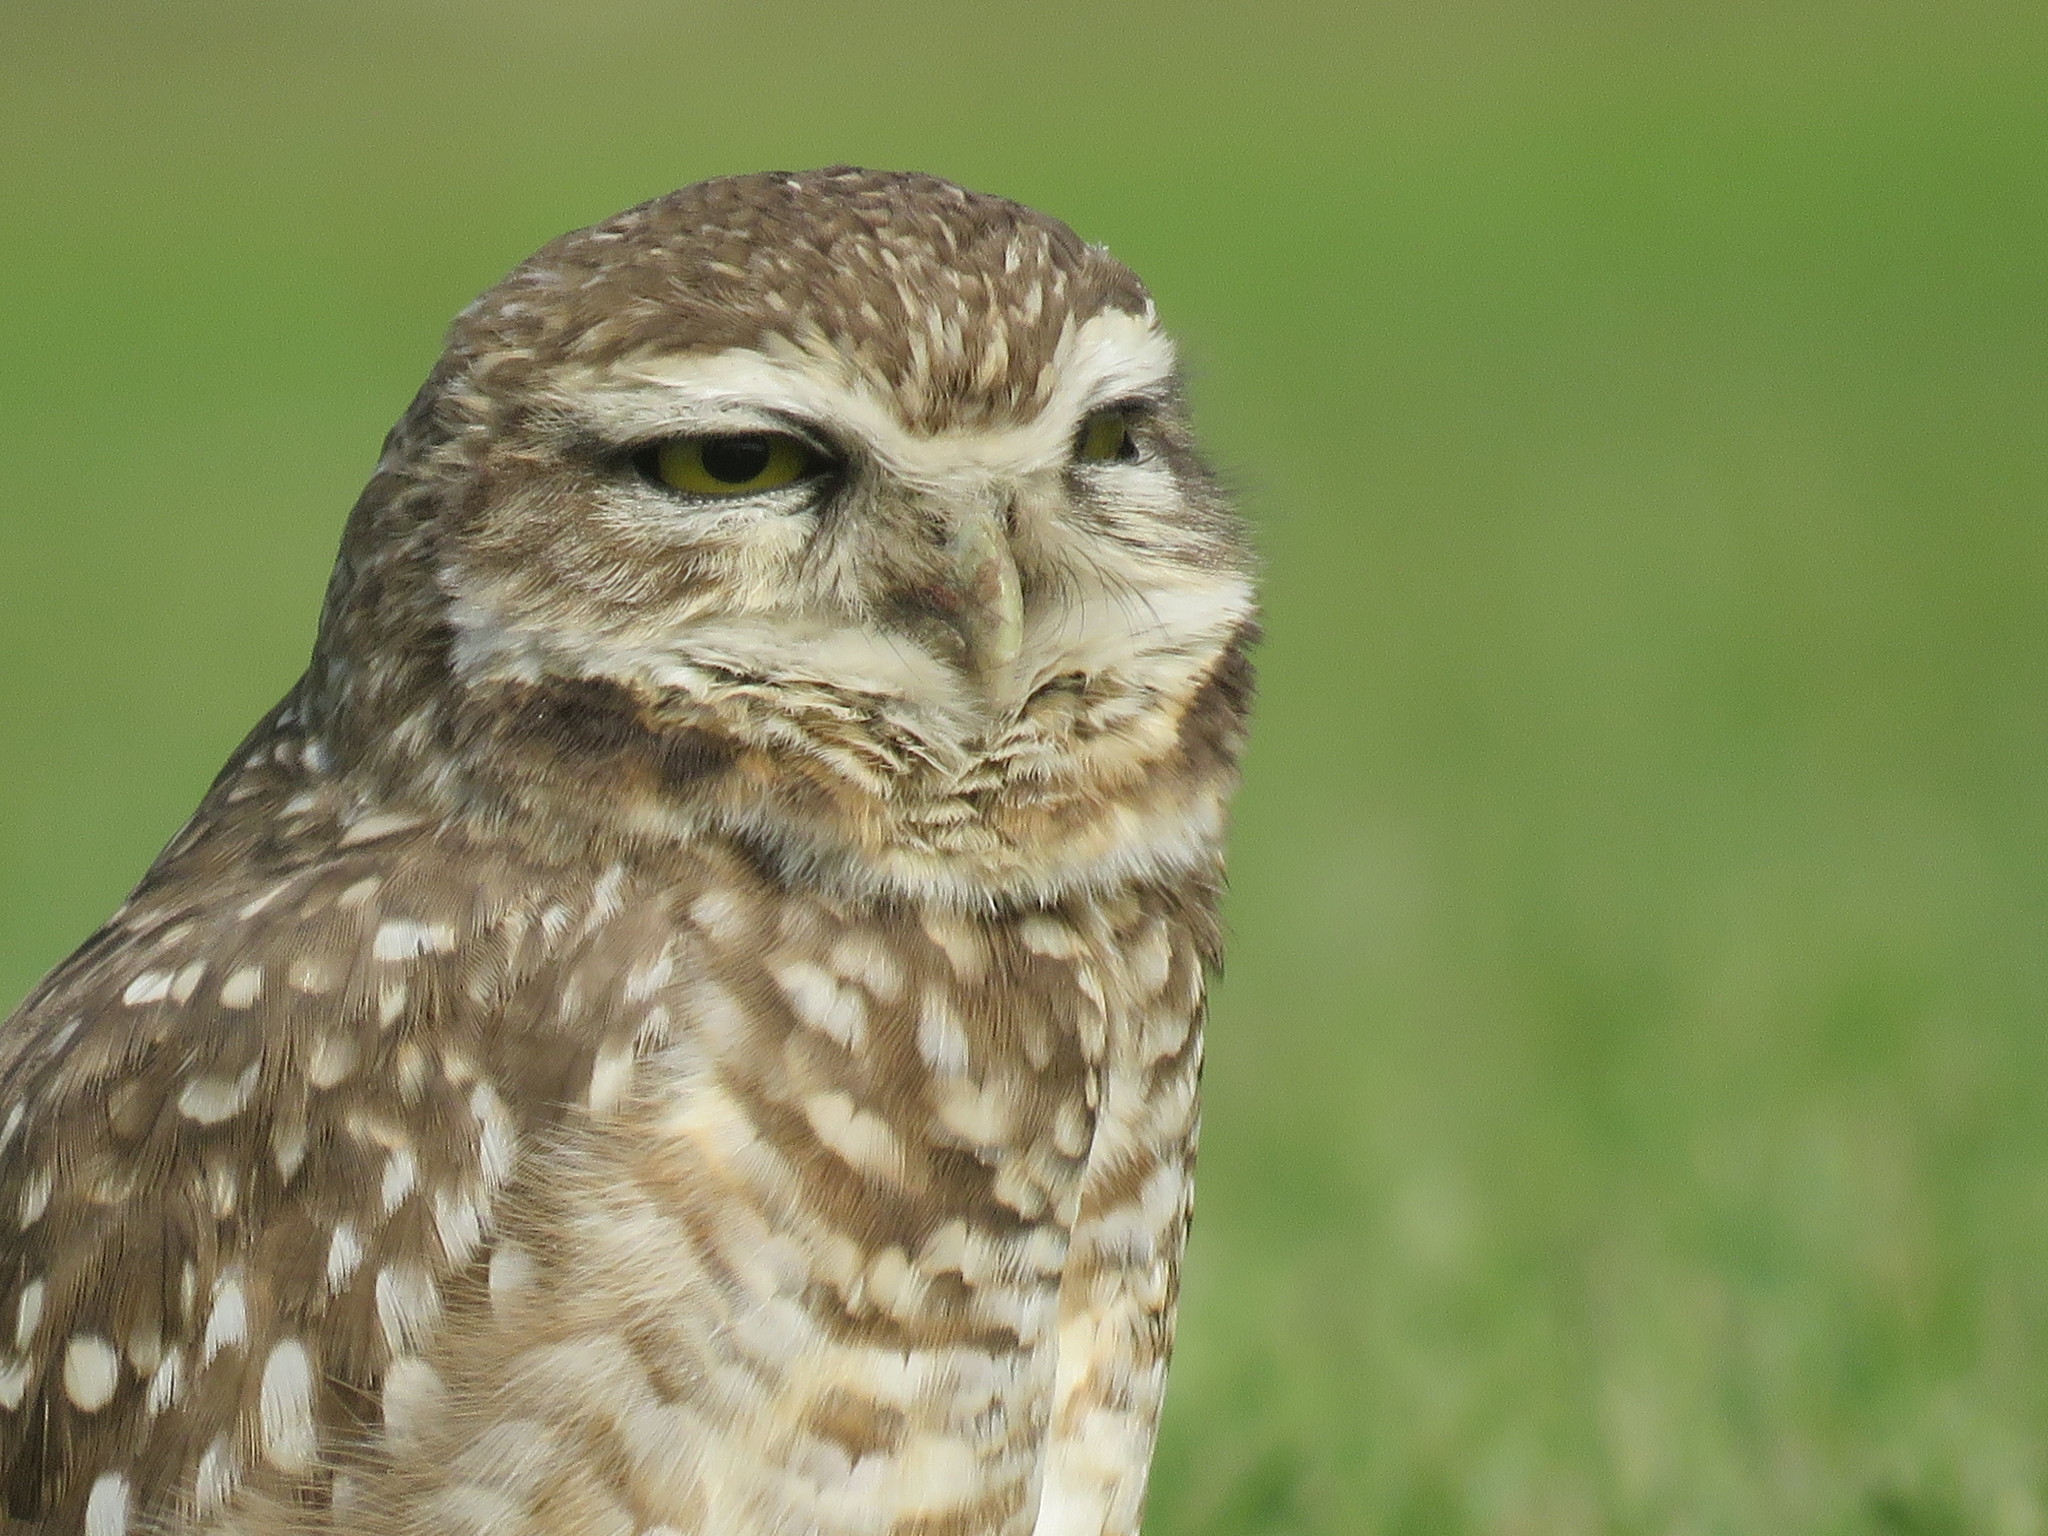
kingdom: Animalia
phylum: Chordata
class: Aves
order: Strigiformes
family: Strigidae
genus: Athene
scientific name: Athene cunicularia
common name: Burrowing owl
